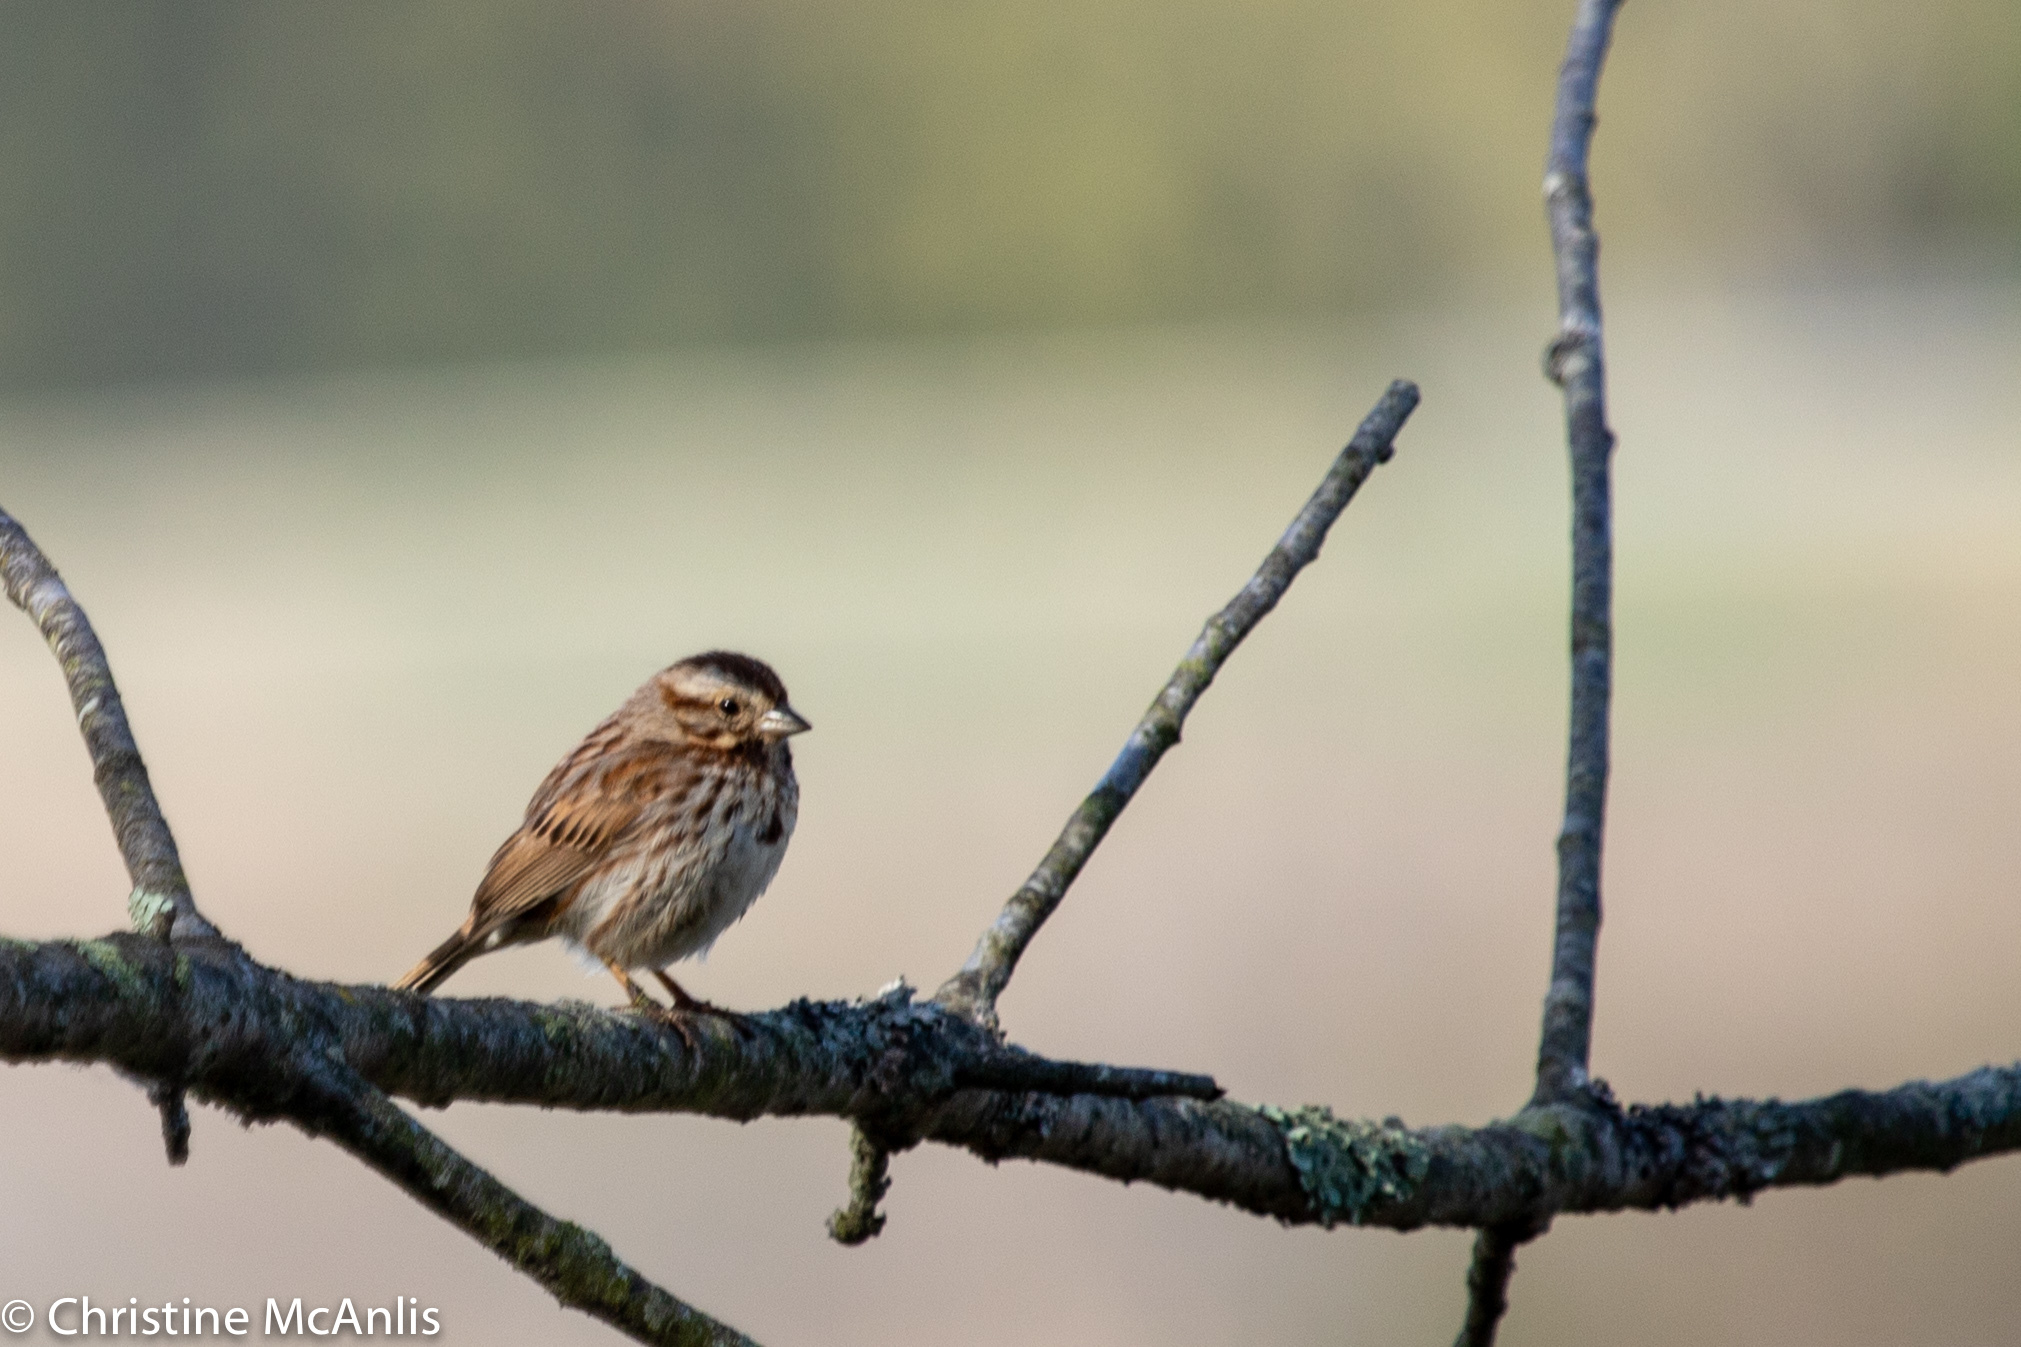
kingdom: Animalia
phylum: Chordata
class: Aves
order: Passeriformes
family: Passerellidae
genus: Melospiza
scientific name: Melospiza melodia
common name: Song sparrow
